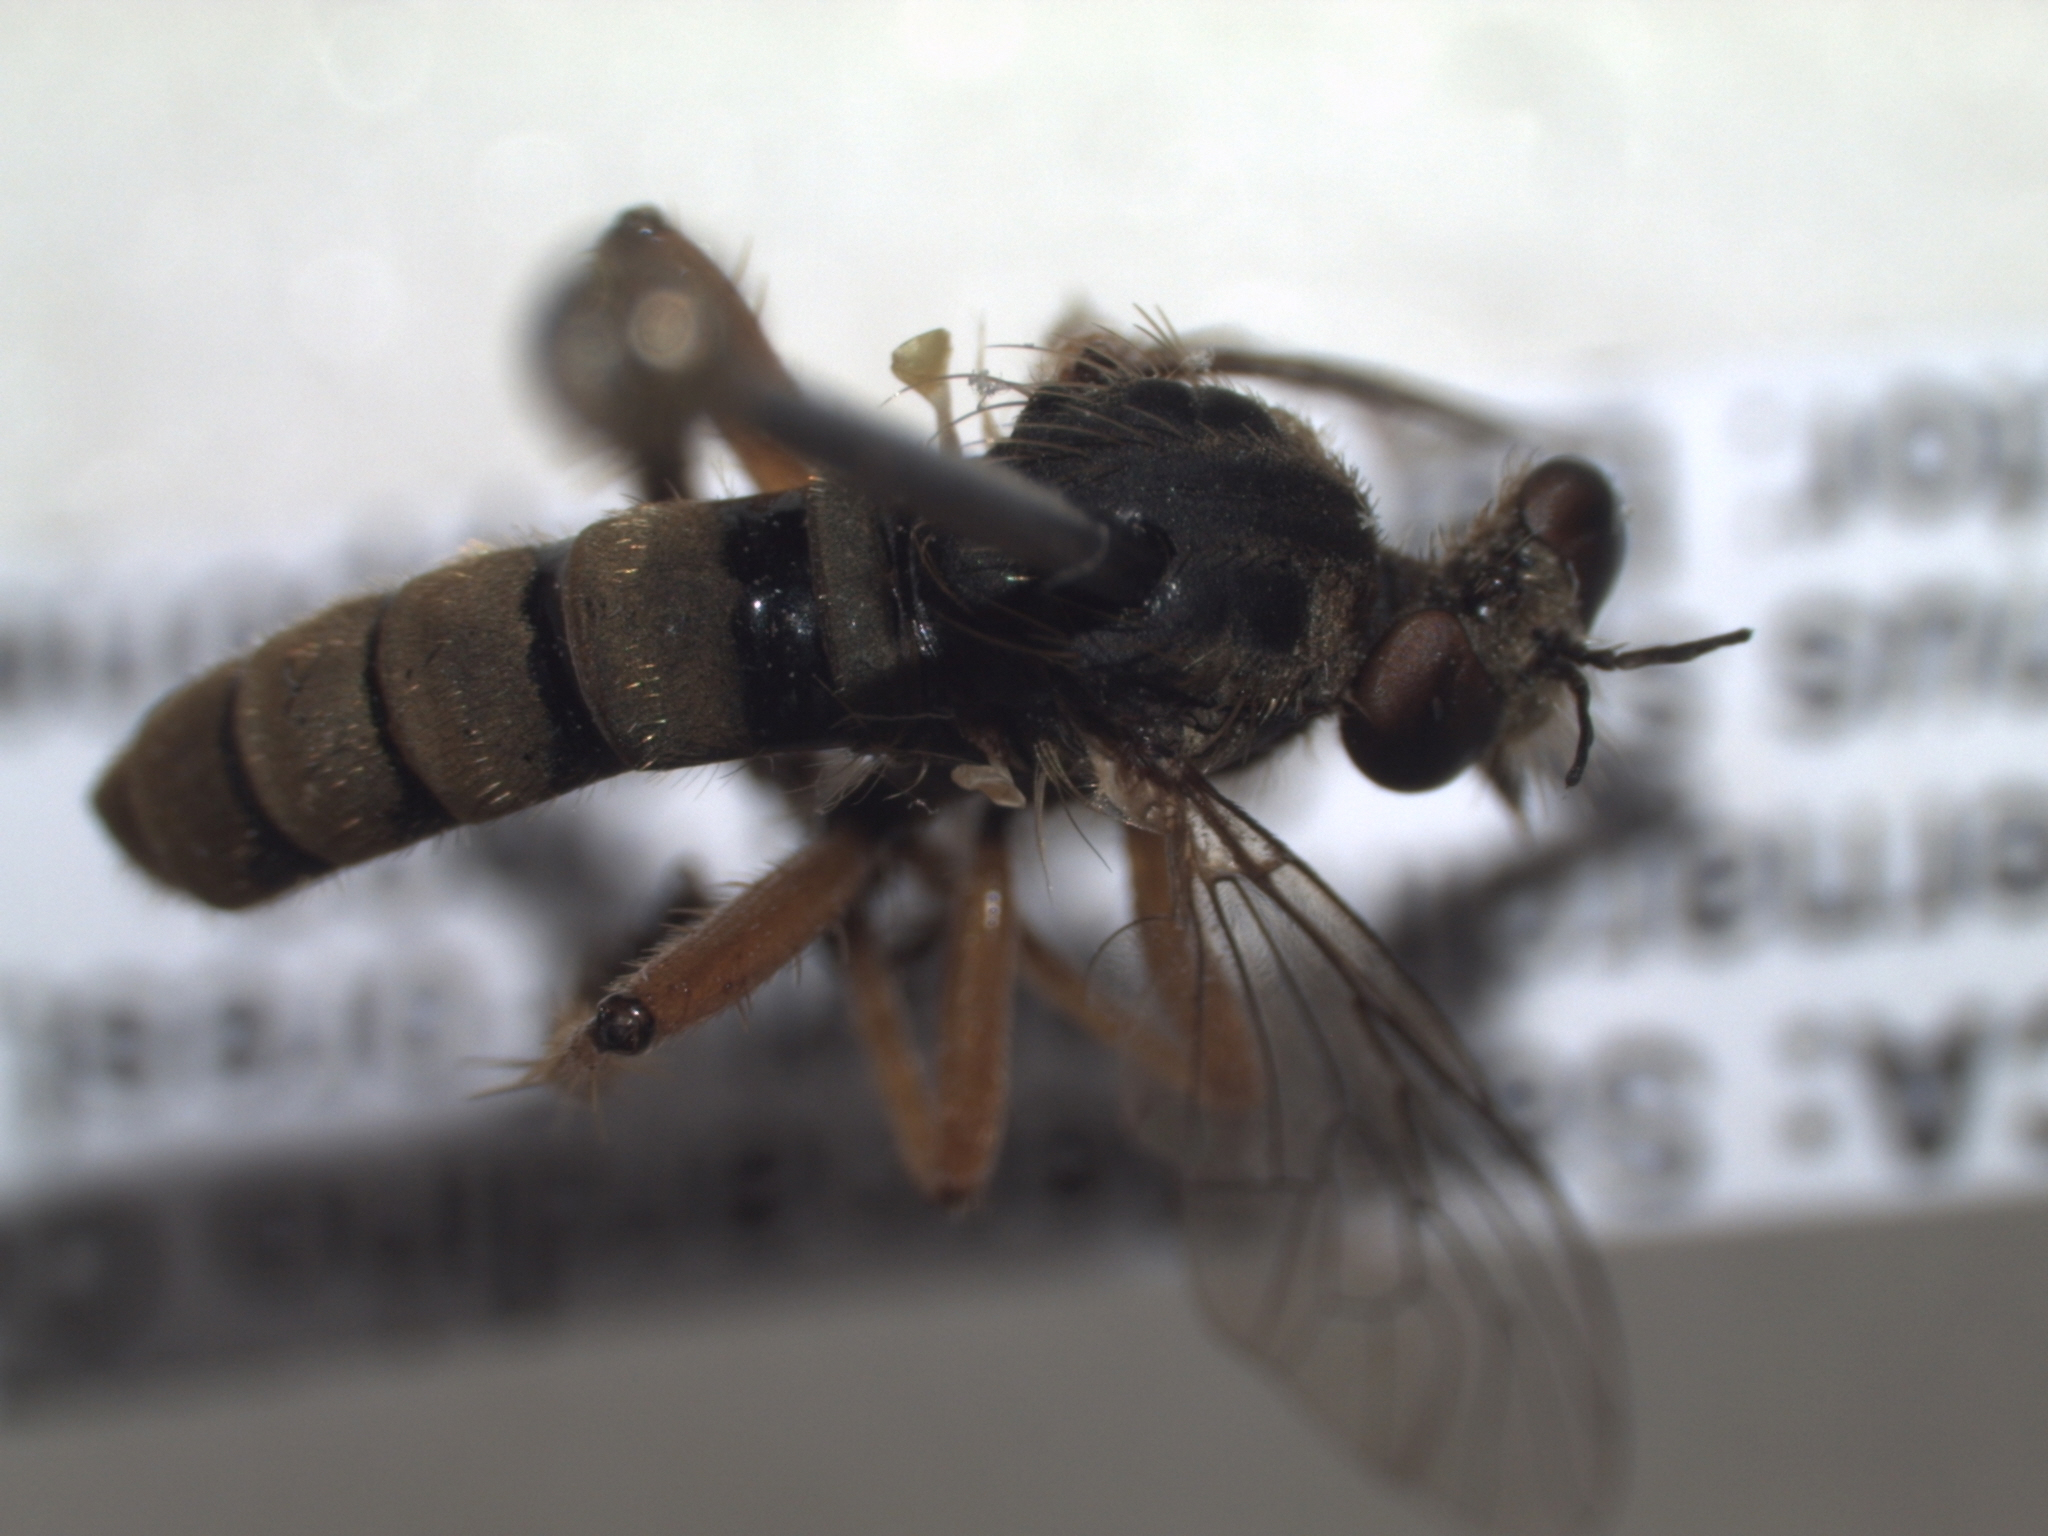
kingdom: Animalia
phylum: Arthropoda
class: Insecta
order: Diptera
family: Asilidae
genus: Callinicus
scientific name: Callinicus pictitarsis
